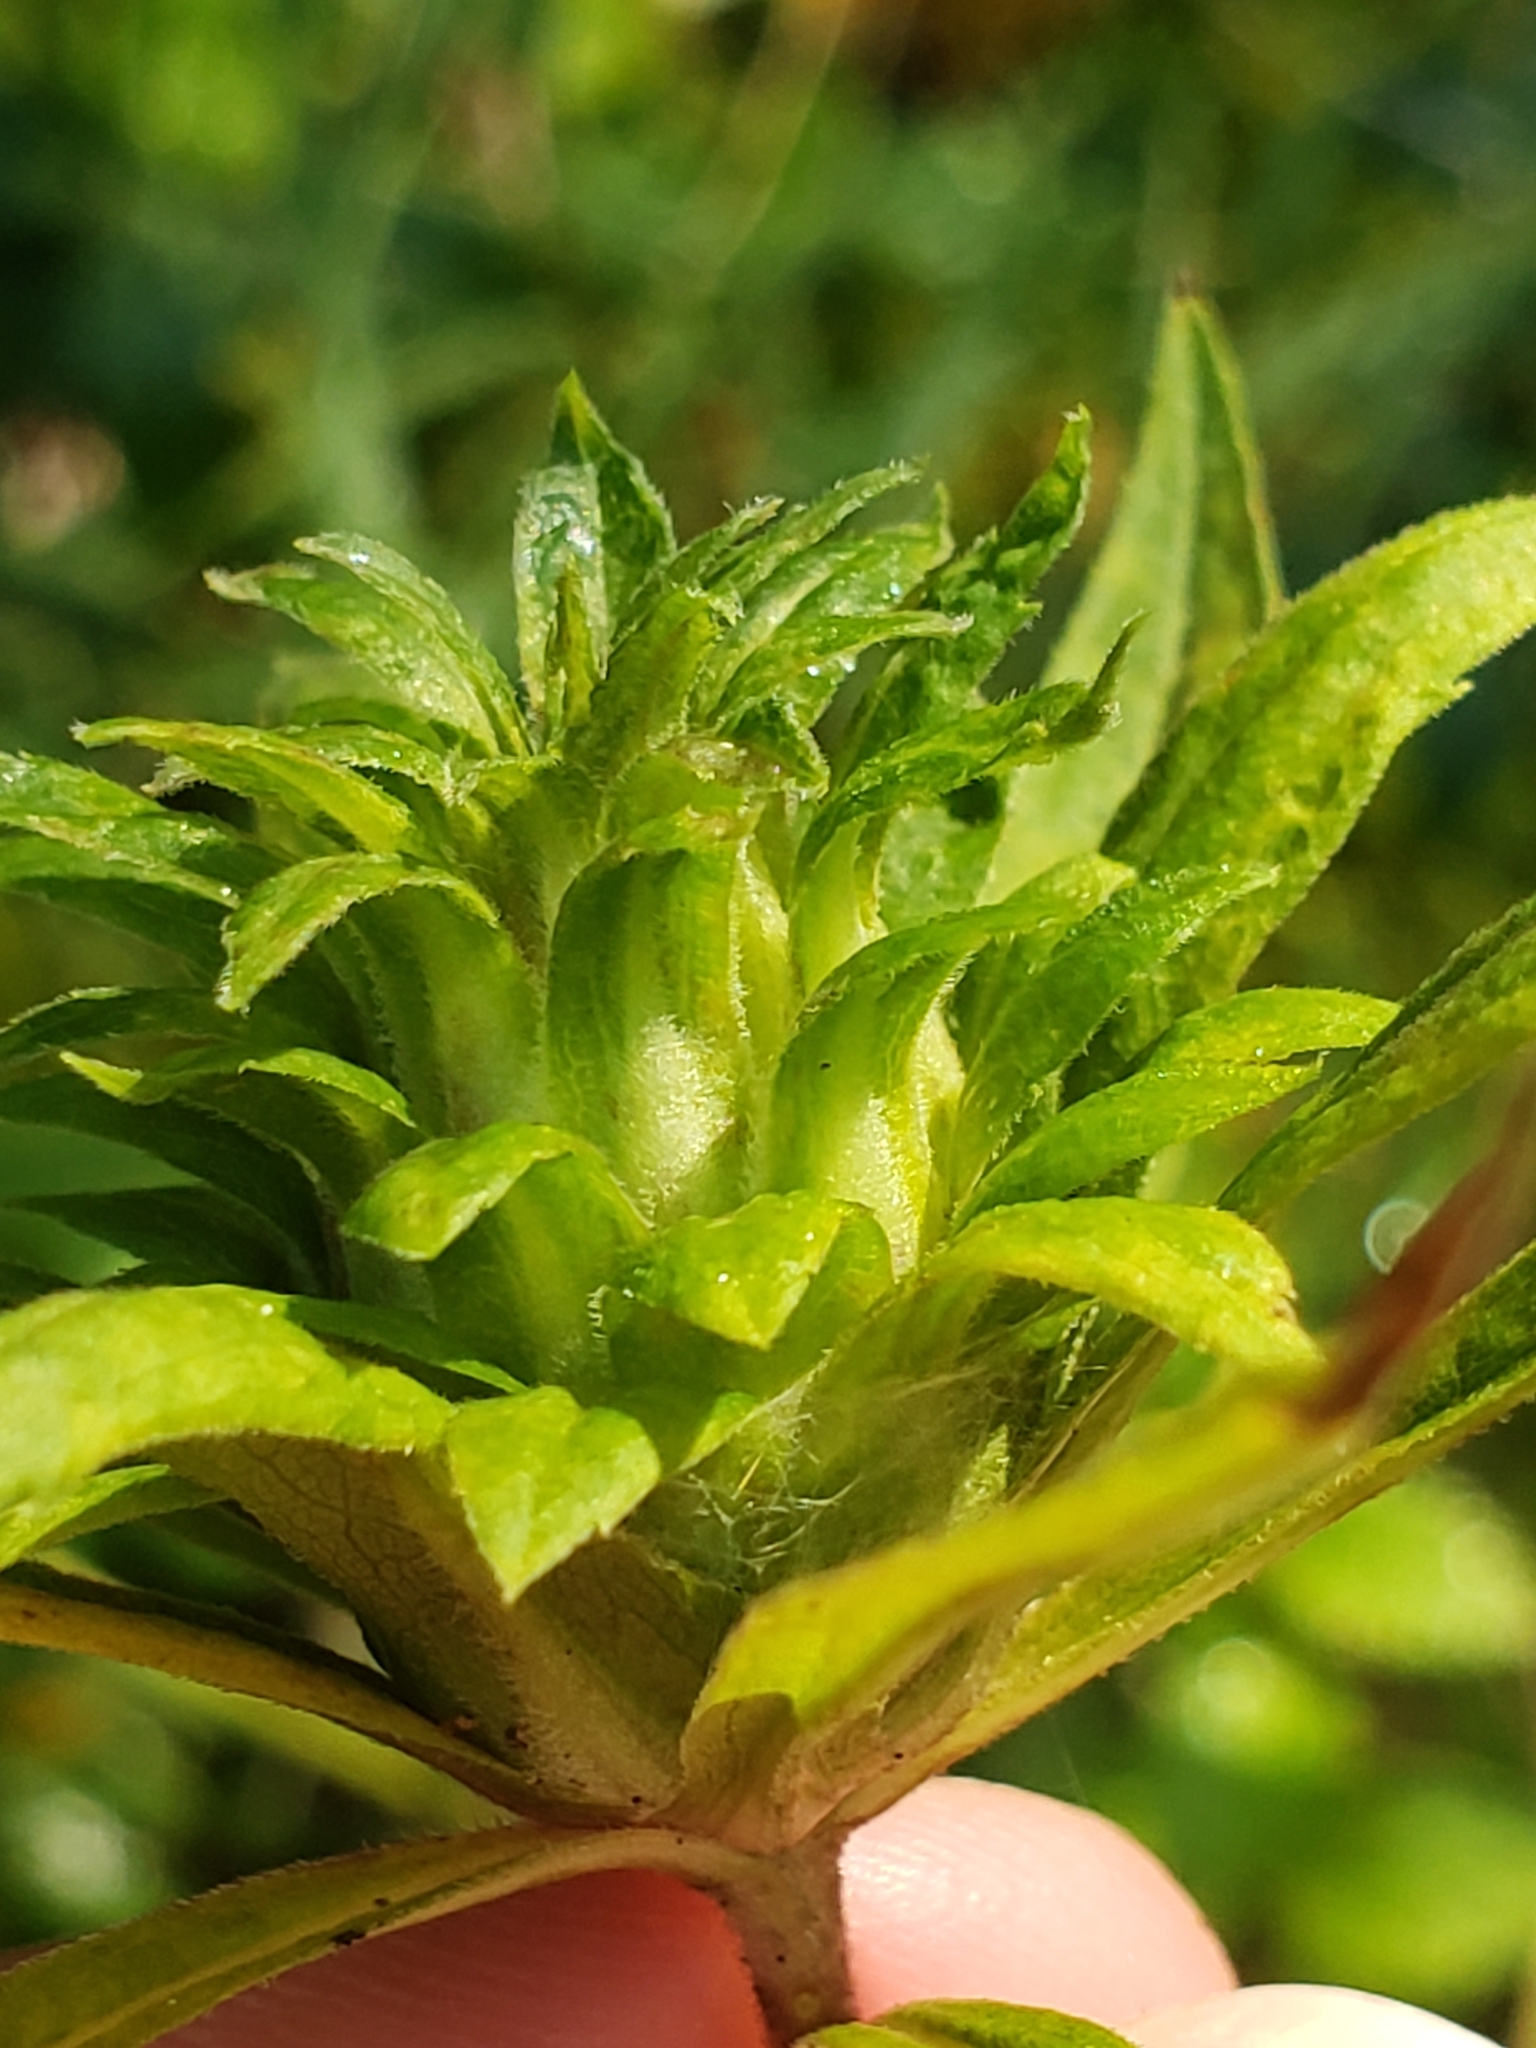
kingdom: Animalia
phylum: Arthropoda
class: Insecta
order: Diptera
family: Tephritidae
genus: Procecidochares
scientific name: Procecidochares atra
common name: Goldenrod brussels sprout gall fly
